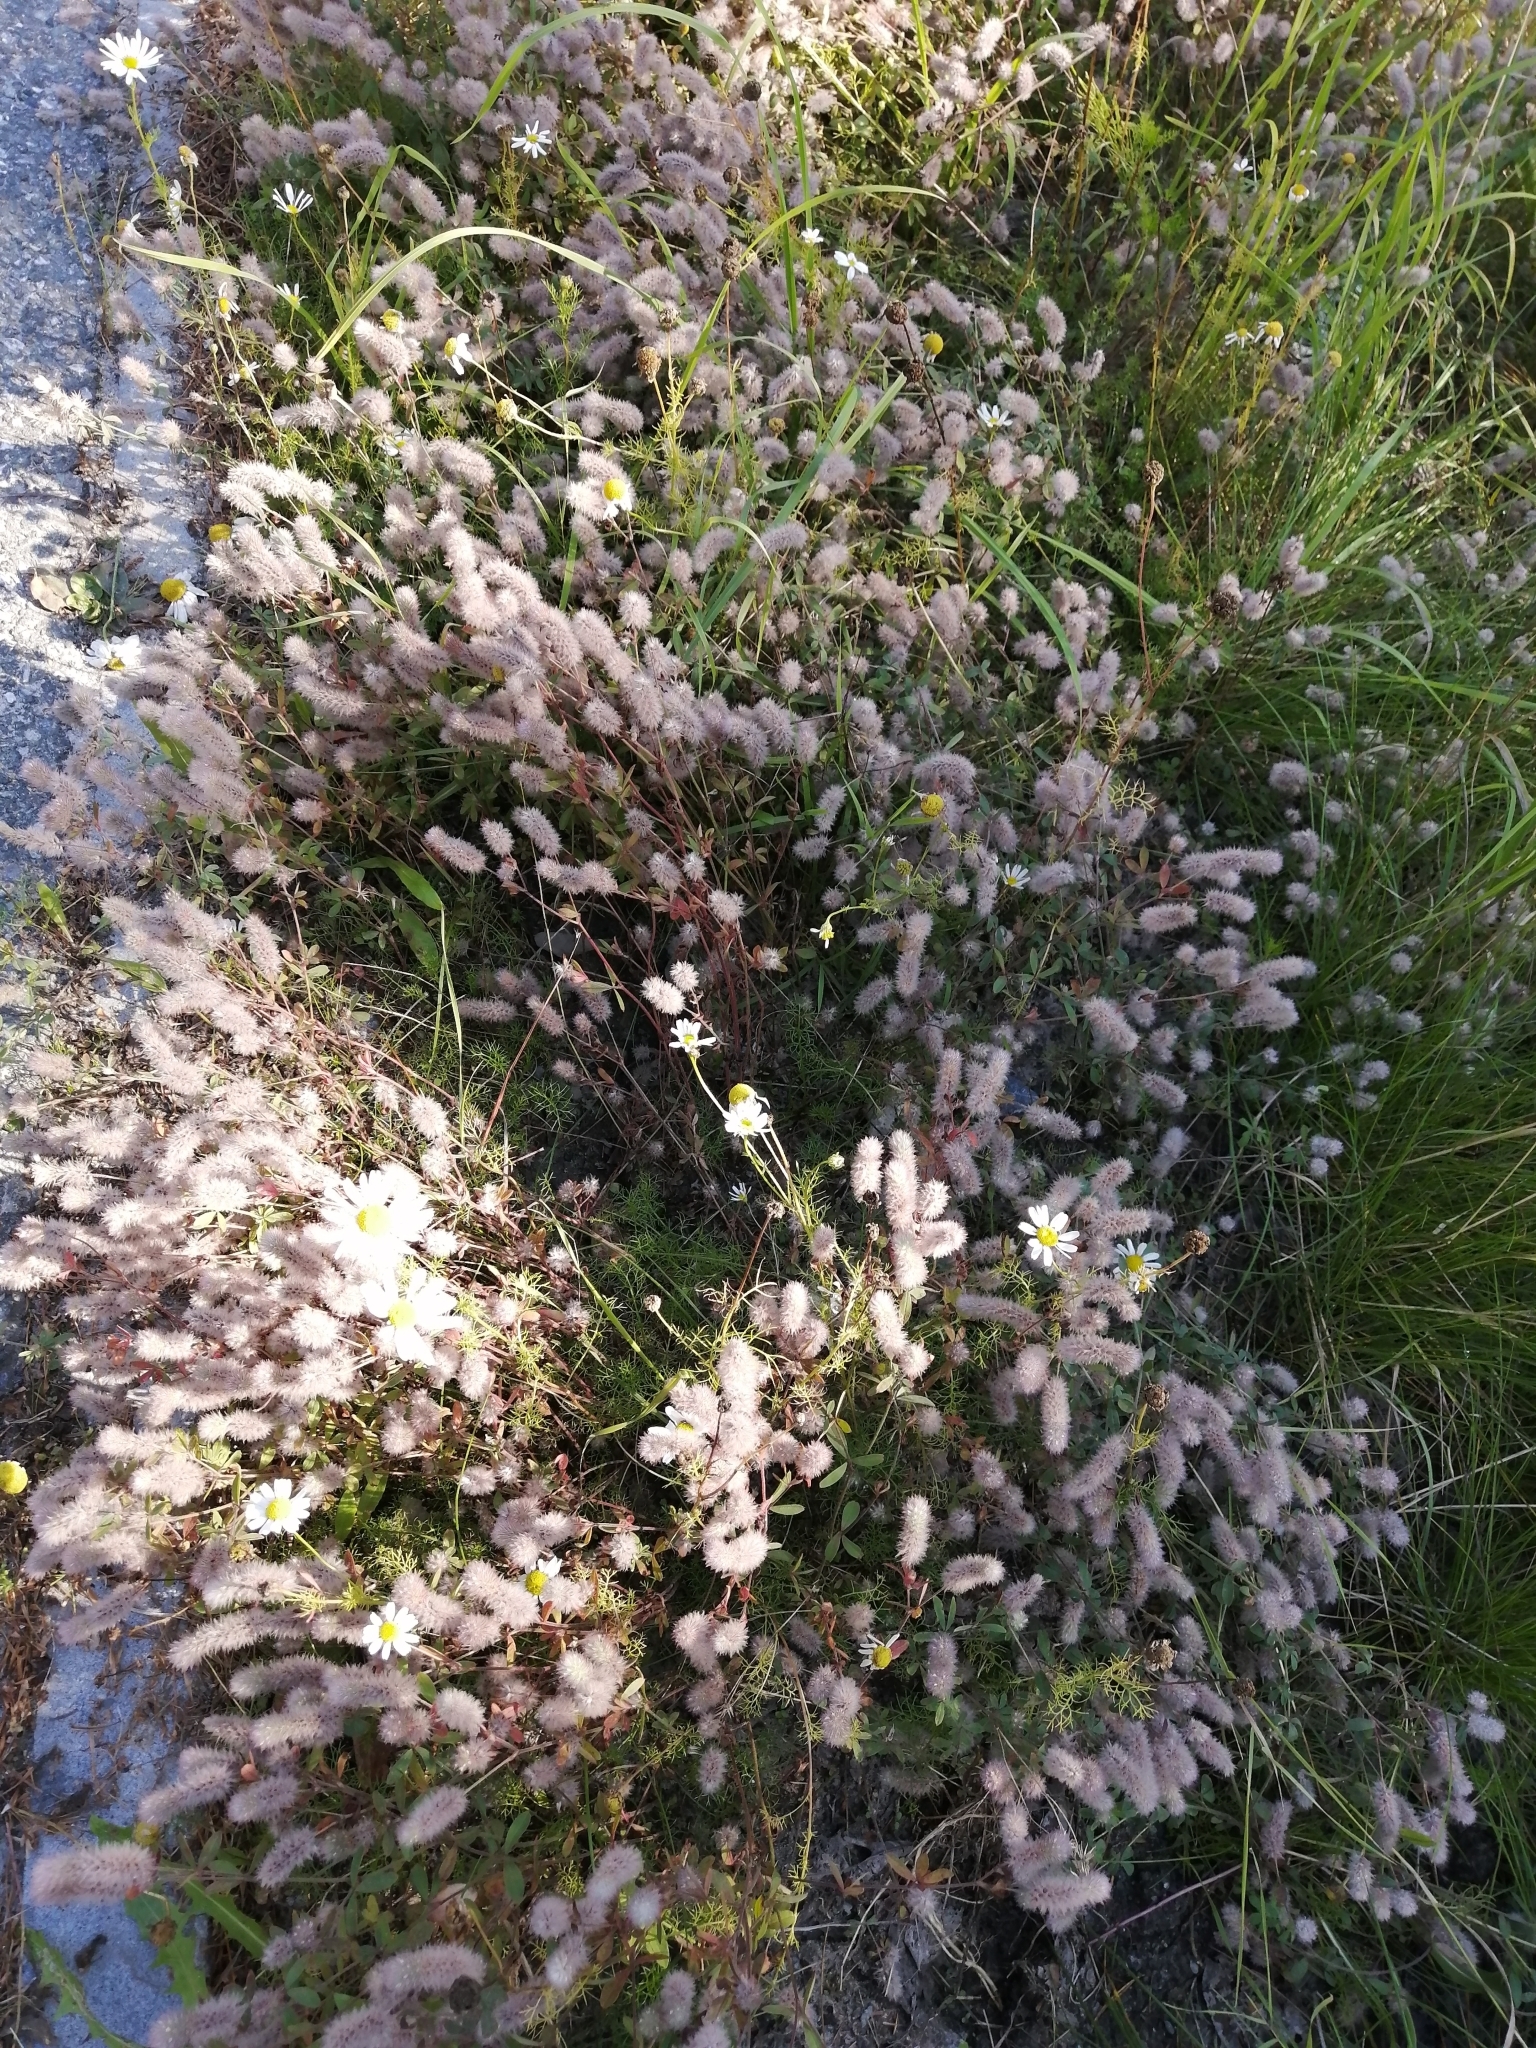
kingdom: Plantae
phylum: Tracheophyta
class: Magnoliopsida
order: Fabales
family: Fabaceae
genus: Trifolium
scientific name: Trifolium arvense
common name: Hare's-foot clover
